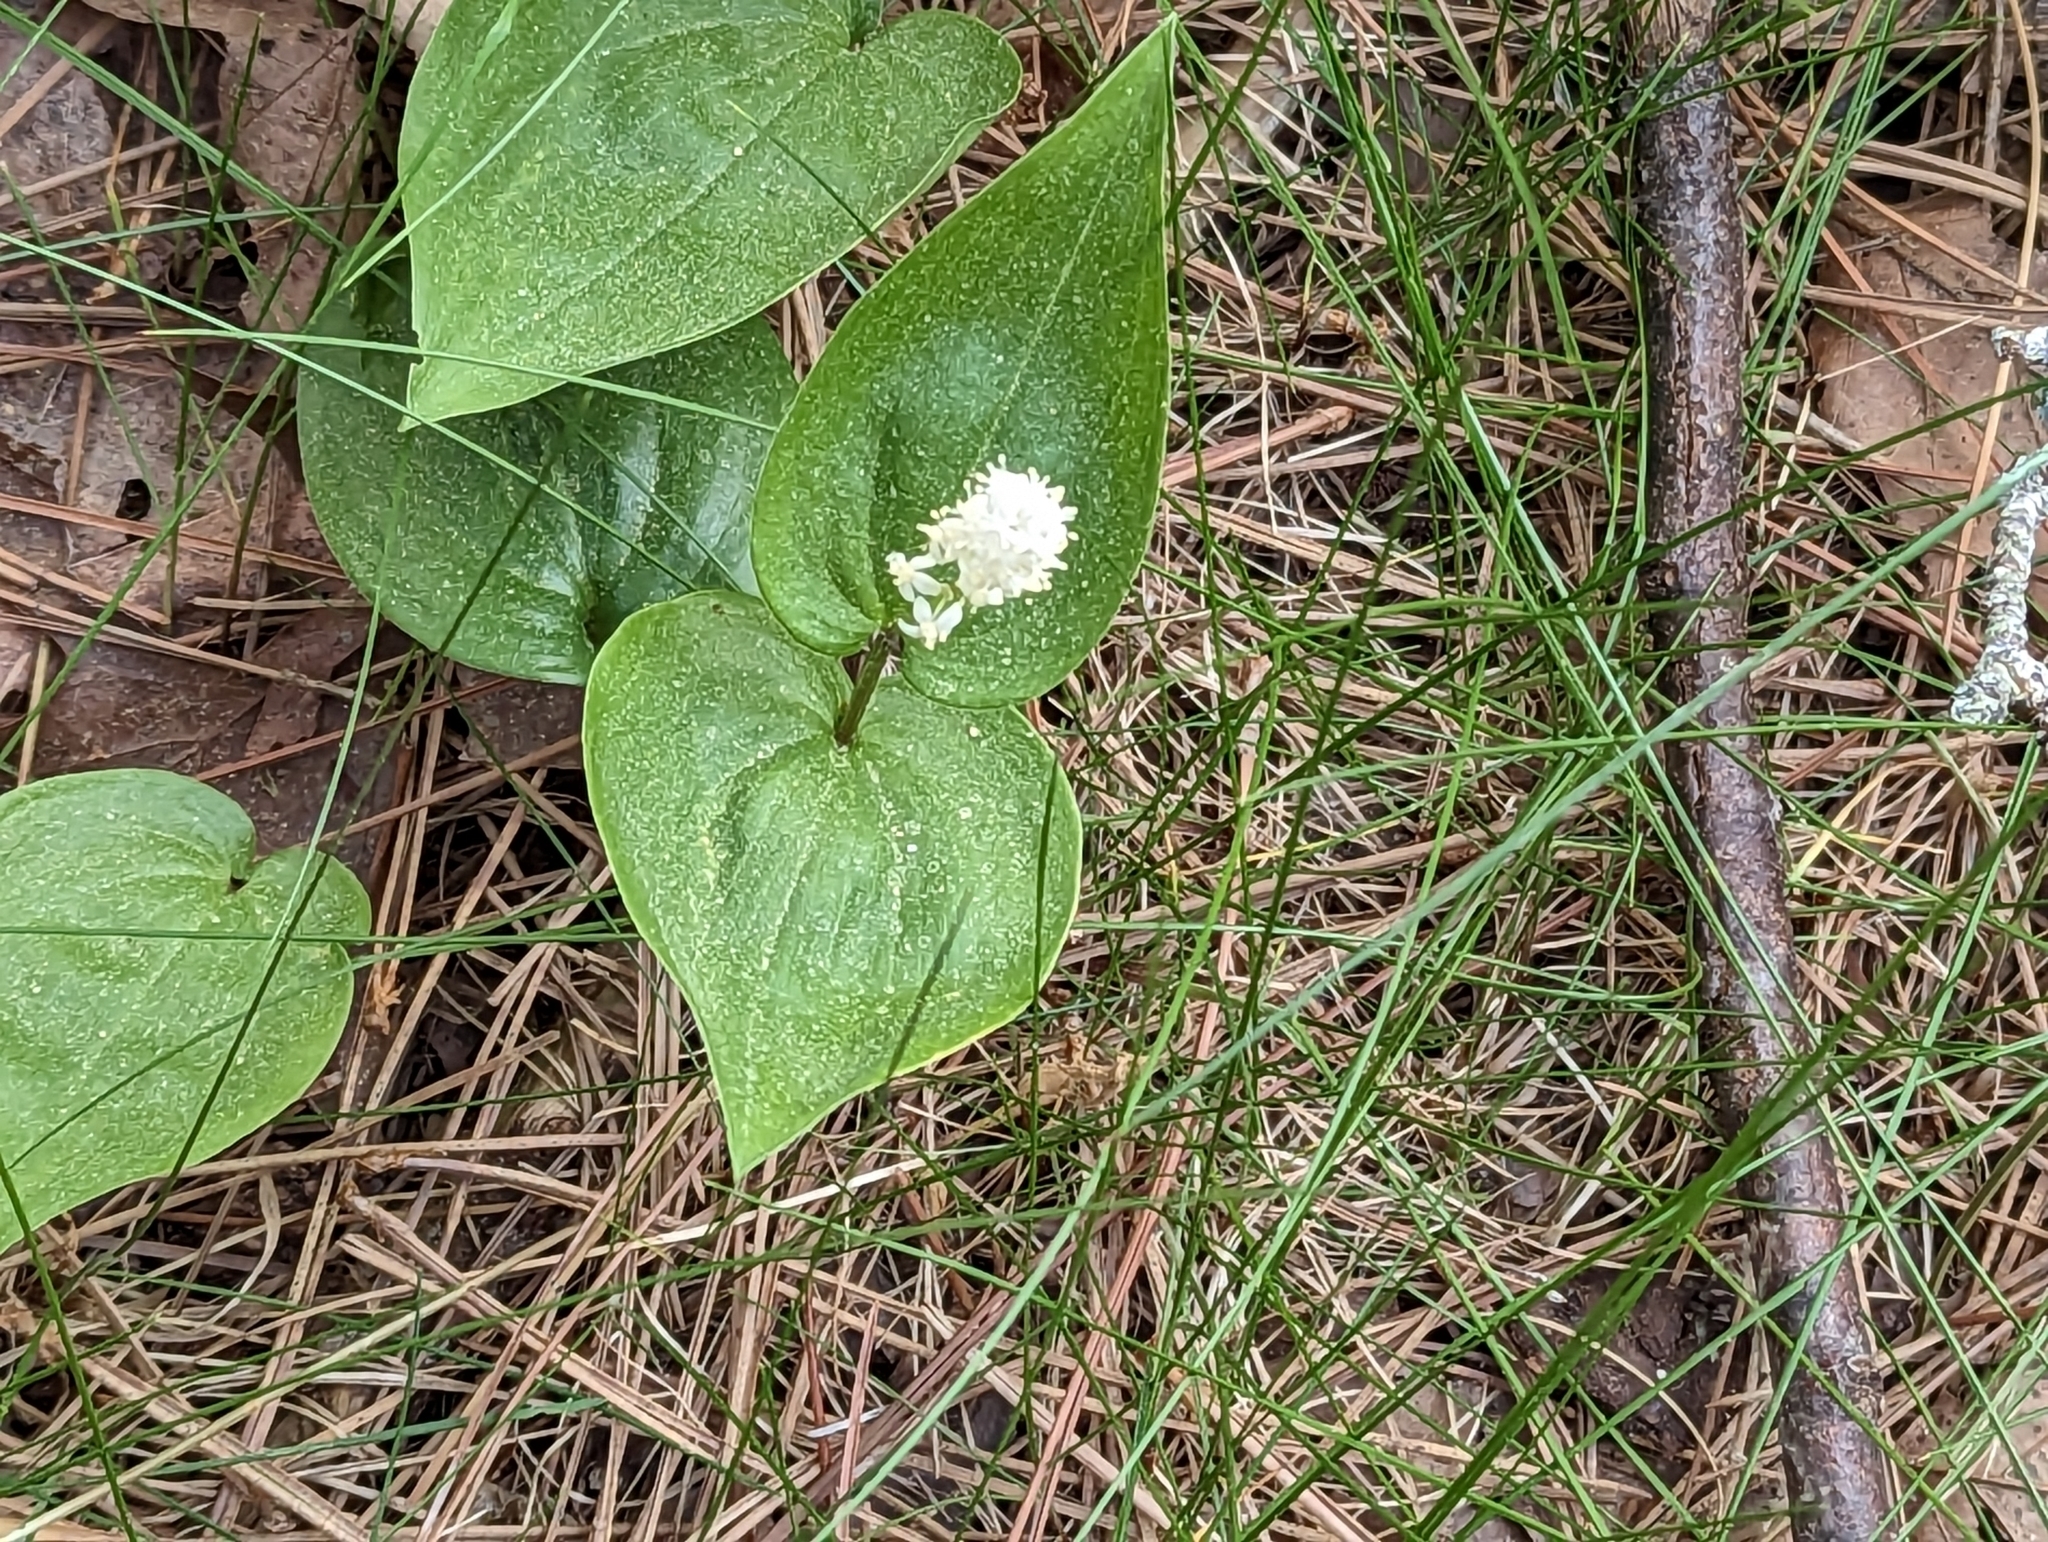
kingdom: Plantae
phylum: Tracheophyta
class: Liliopsida
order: Asparagales
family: Asparagaceae
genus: Maianthemum
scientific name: Maianthemum canadense
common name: False lily-of-the-valley
